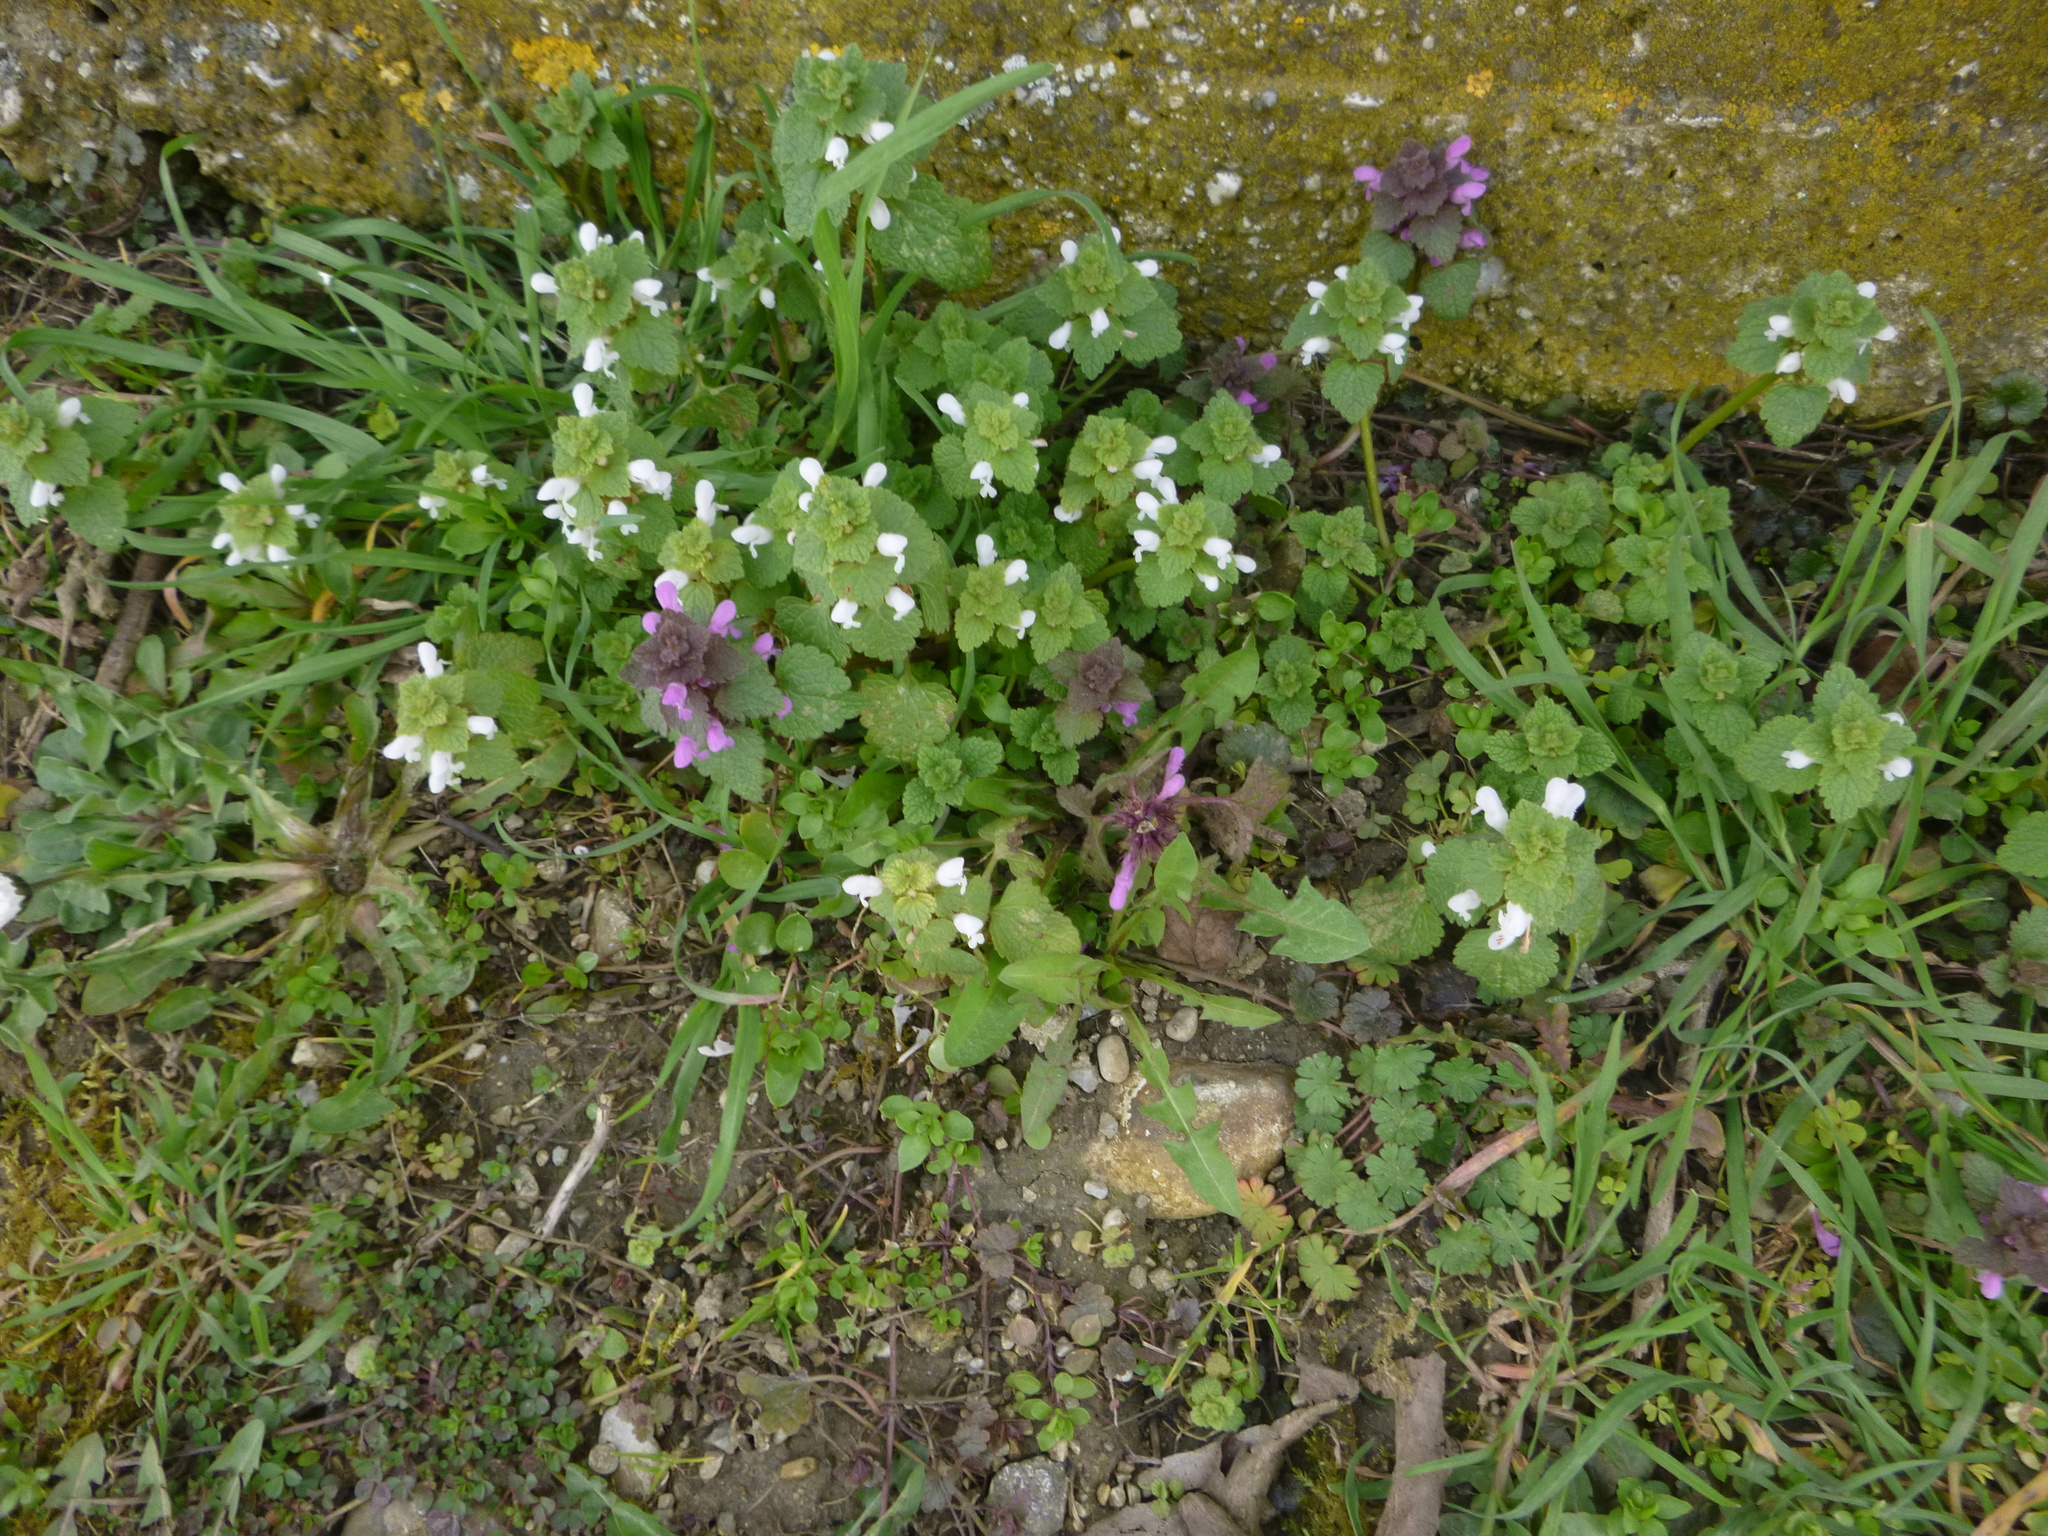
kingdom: Plantae
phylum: Tracheophyta
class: Magnoliopsida
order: Lamiales
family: Lamiaceae
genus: Lamium
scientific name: Lamium purpureum
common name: Red dead-nettle
